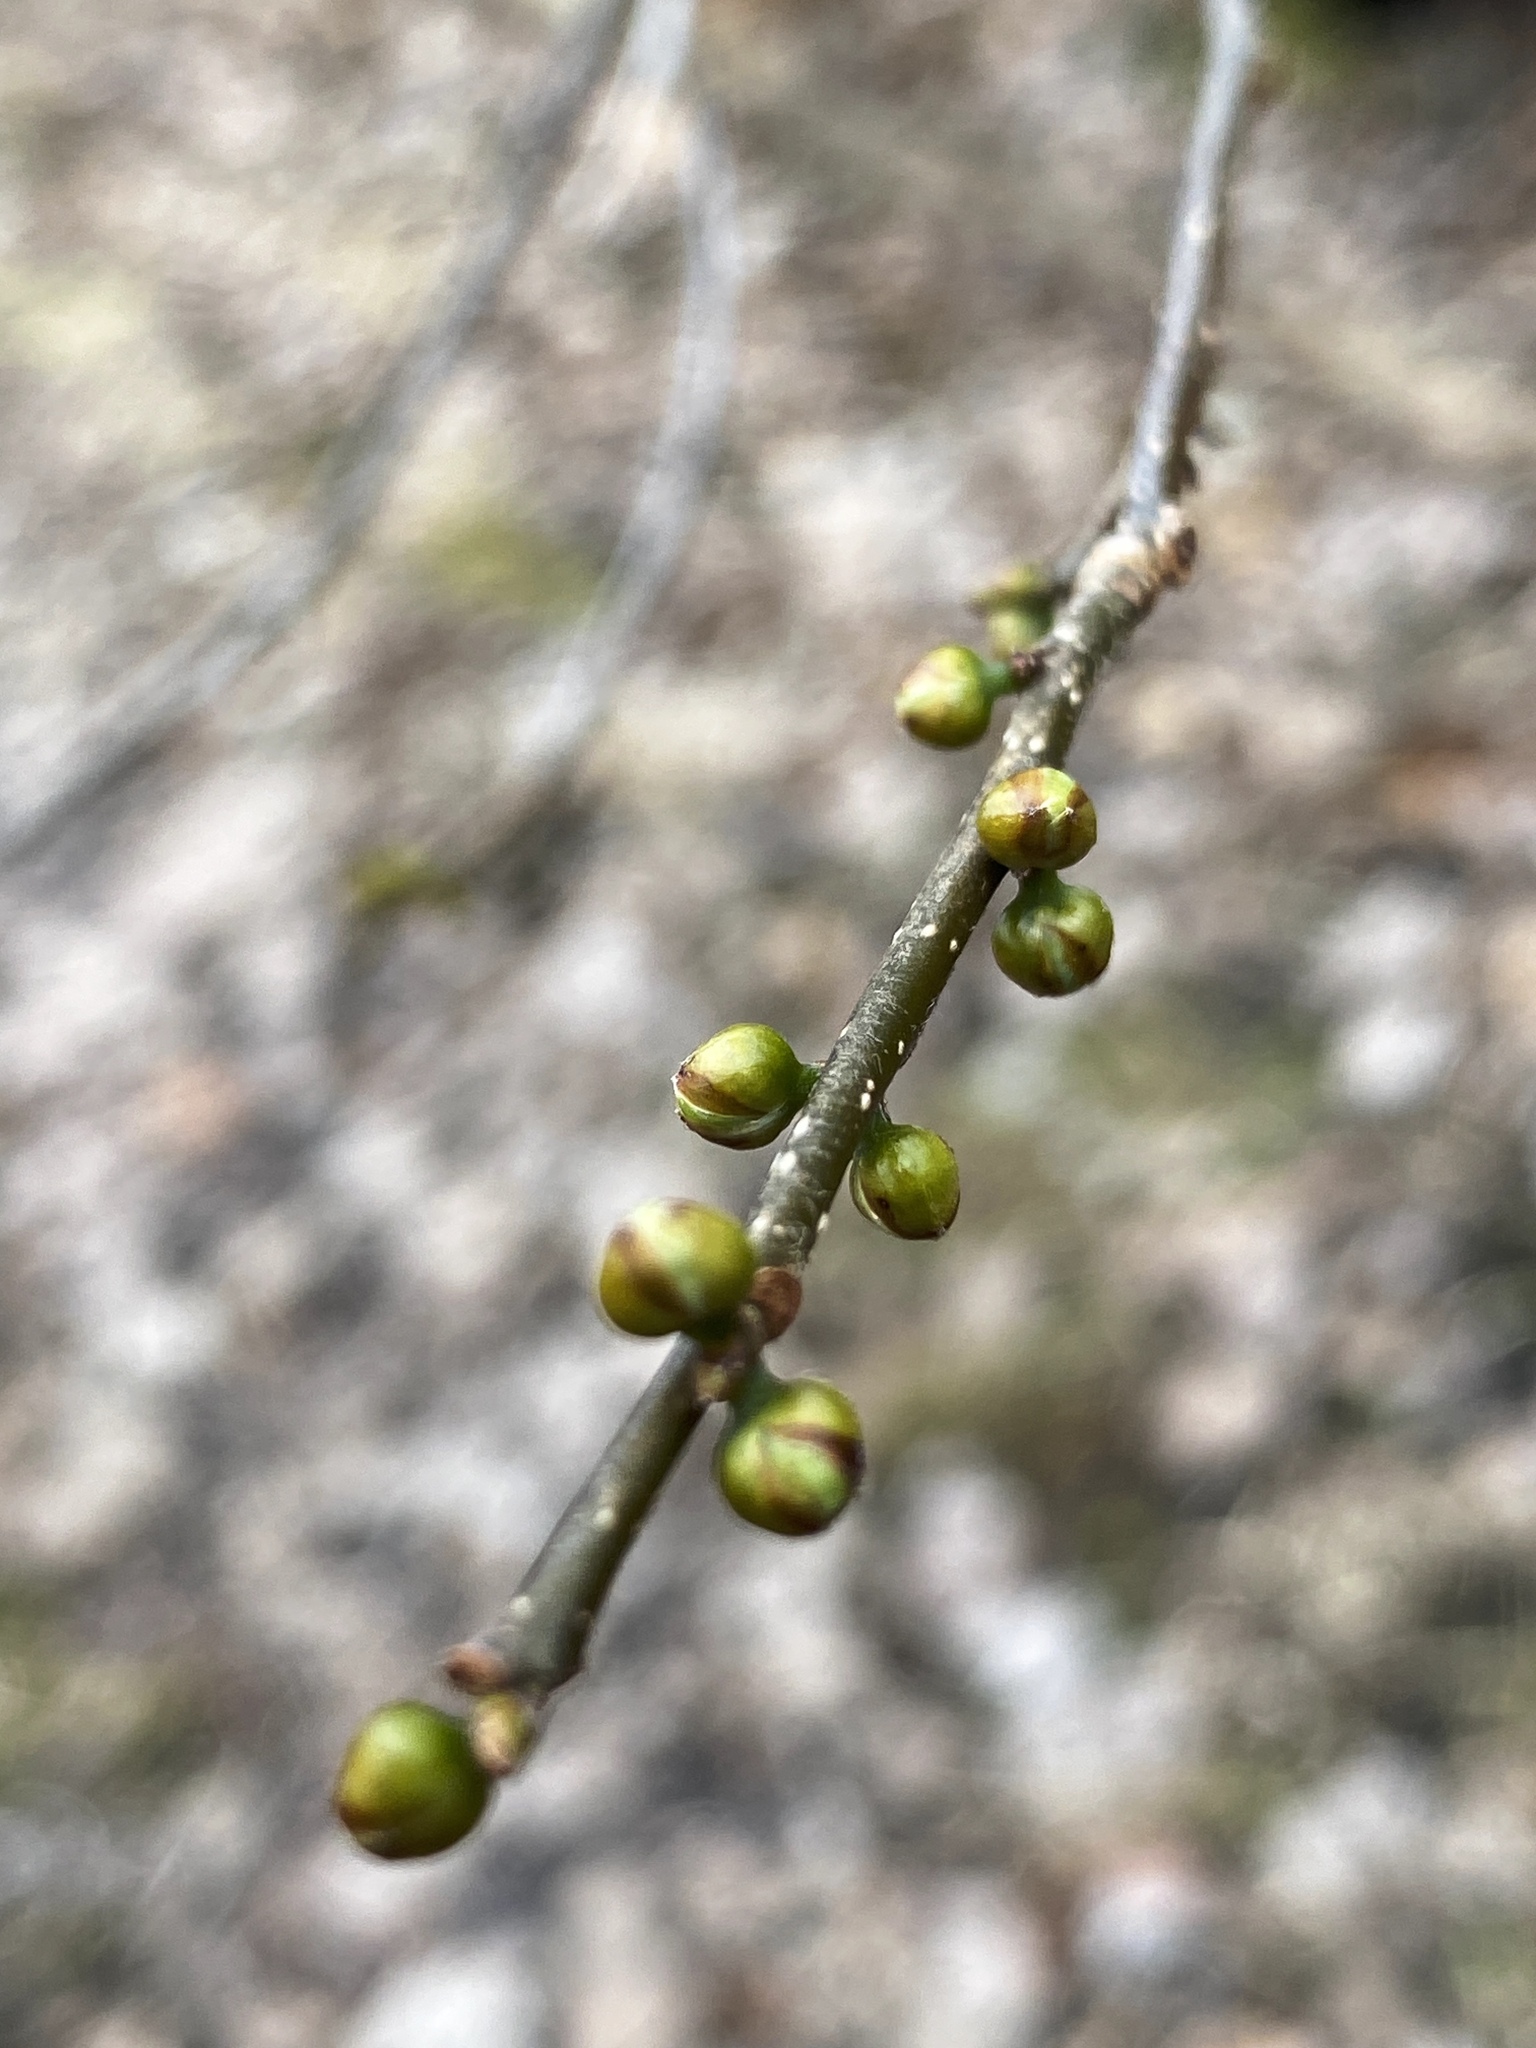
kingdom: Plantae
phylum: Tracheophyta
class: Magnoliopsida
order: Laurales
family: Lauraceae
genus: Lindera
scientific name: Lindera benzoin
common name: Spicebush
